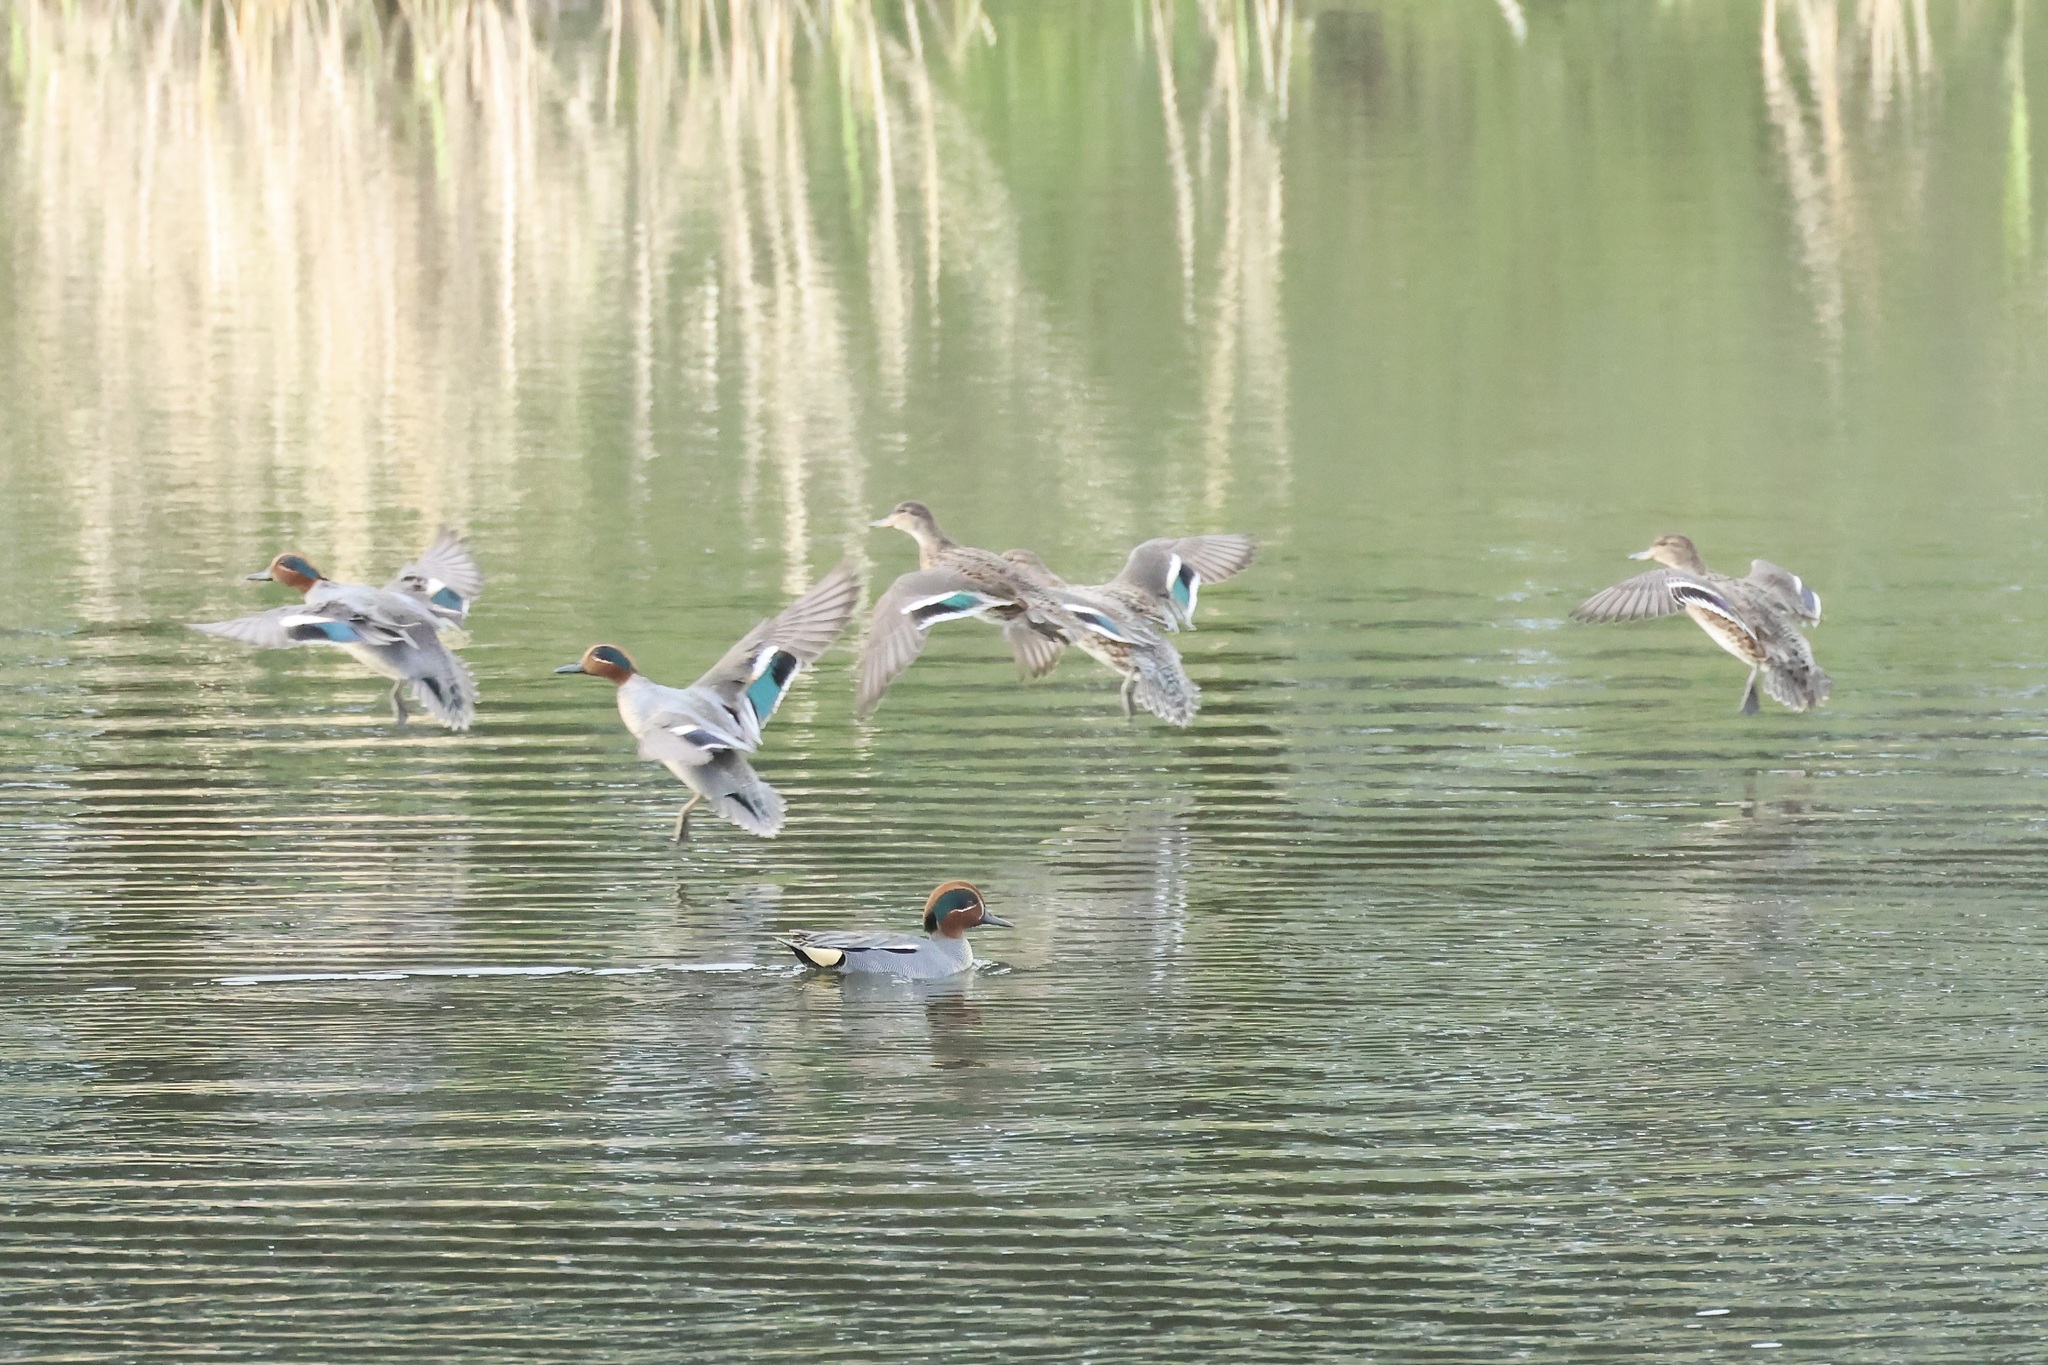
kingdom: Animalia
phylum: Chordata
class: Aves
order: Anseriformes
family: Anatidae
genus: Anas
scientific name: Anas crecca
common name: Eurasian teal
